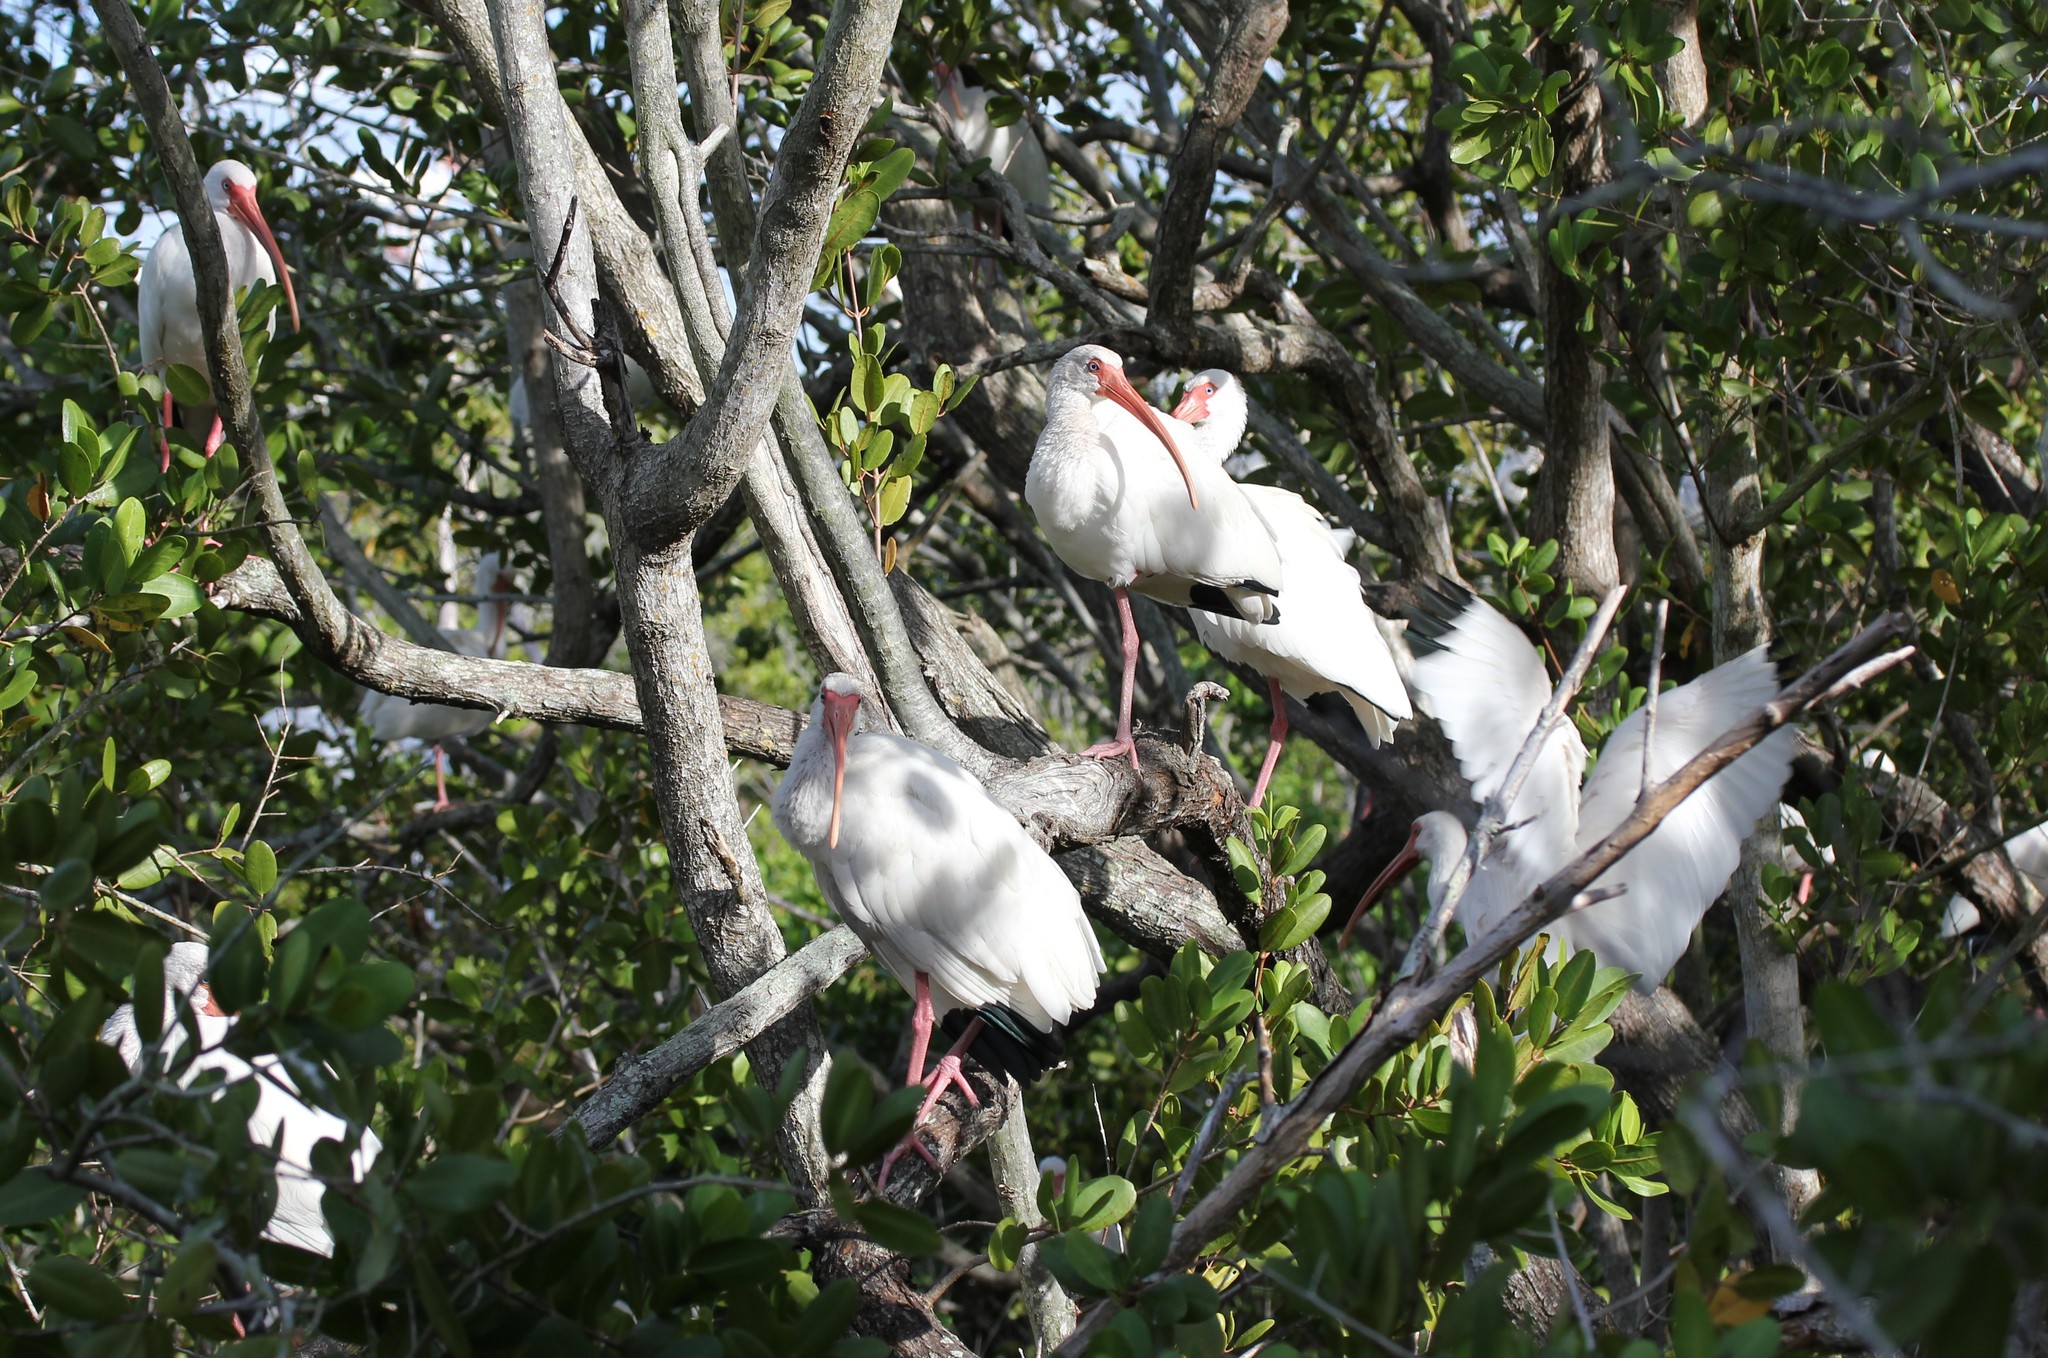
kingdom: Animalia
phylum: Chordata
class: Aves
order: Pelecaniformes
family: Threskiornithidae
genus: Eudocimus
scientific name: Eudocimus albus
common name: White ibis
